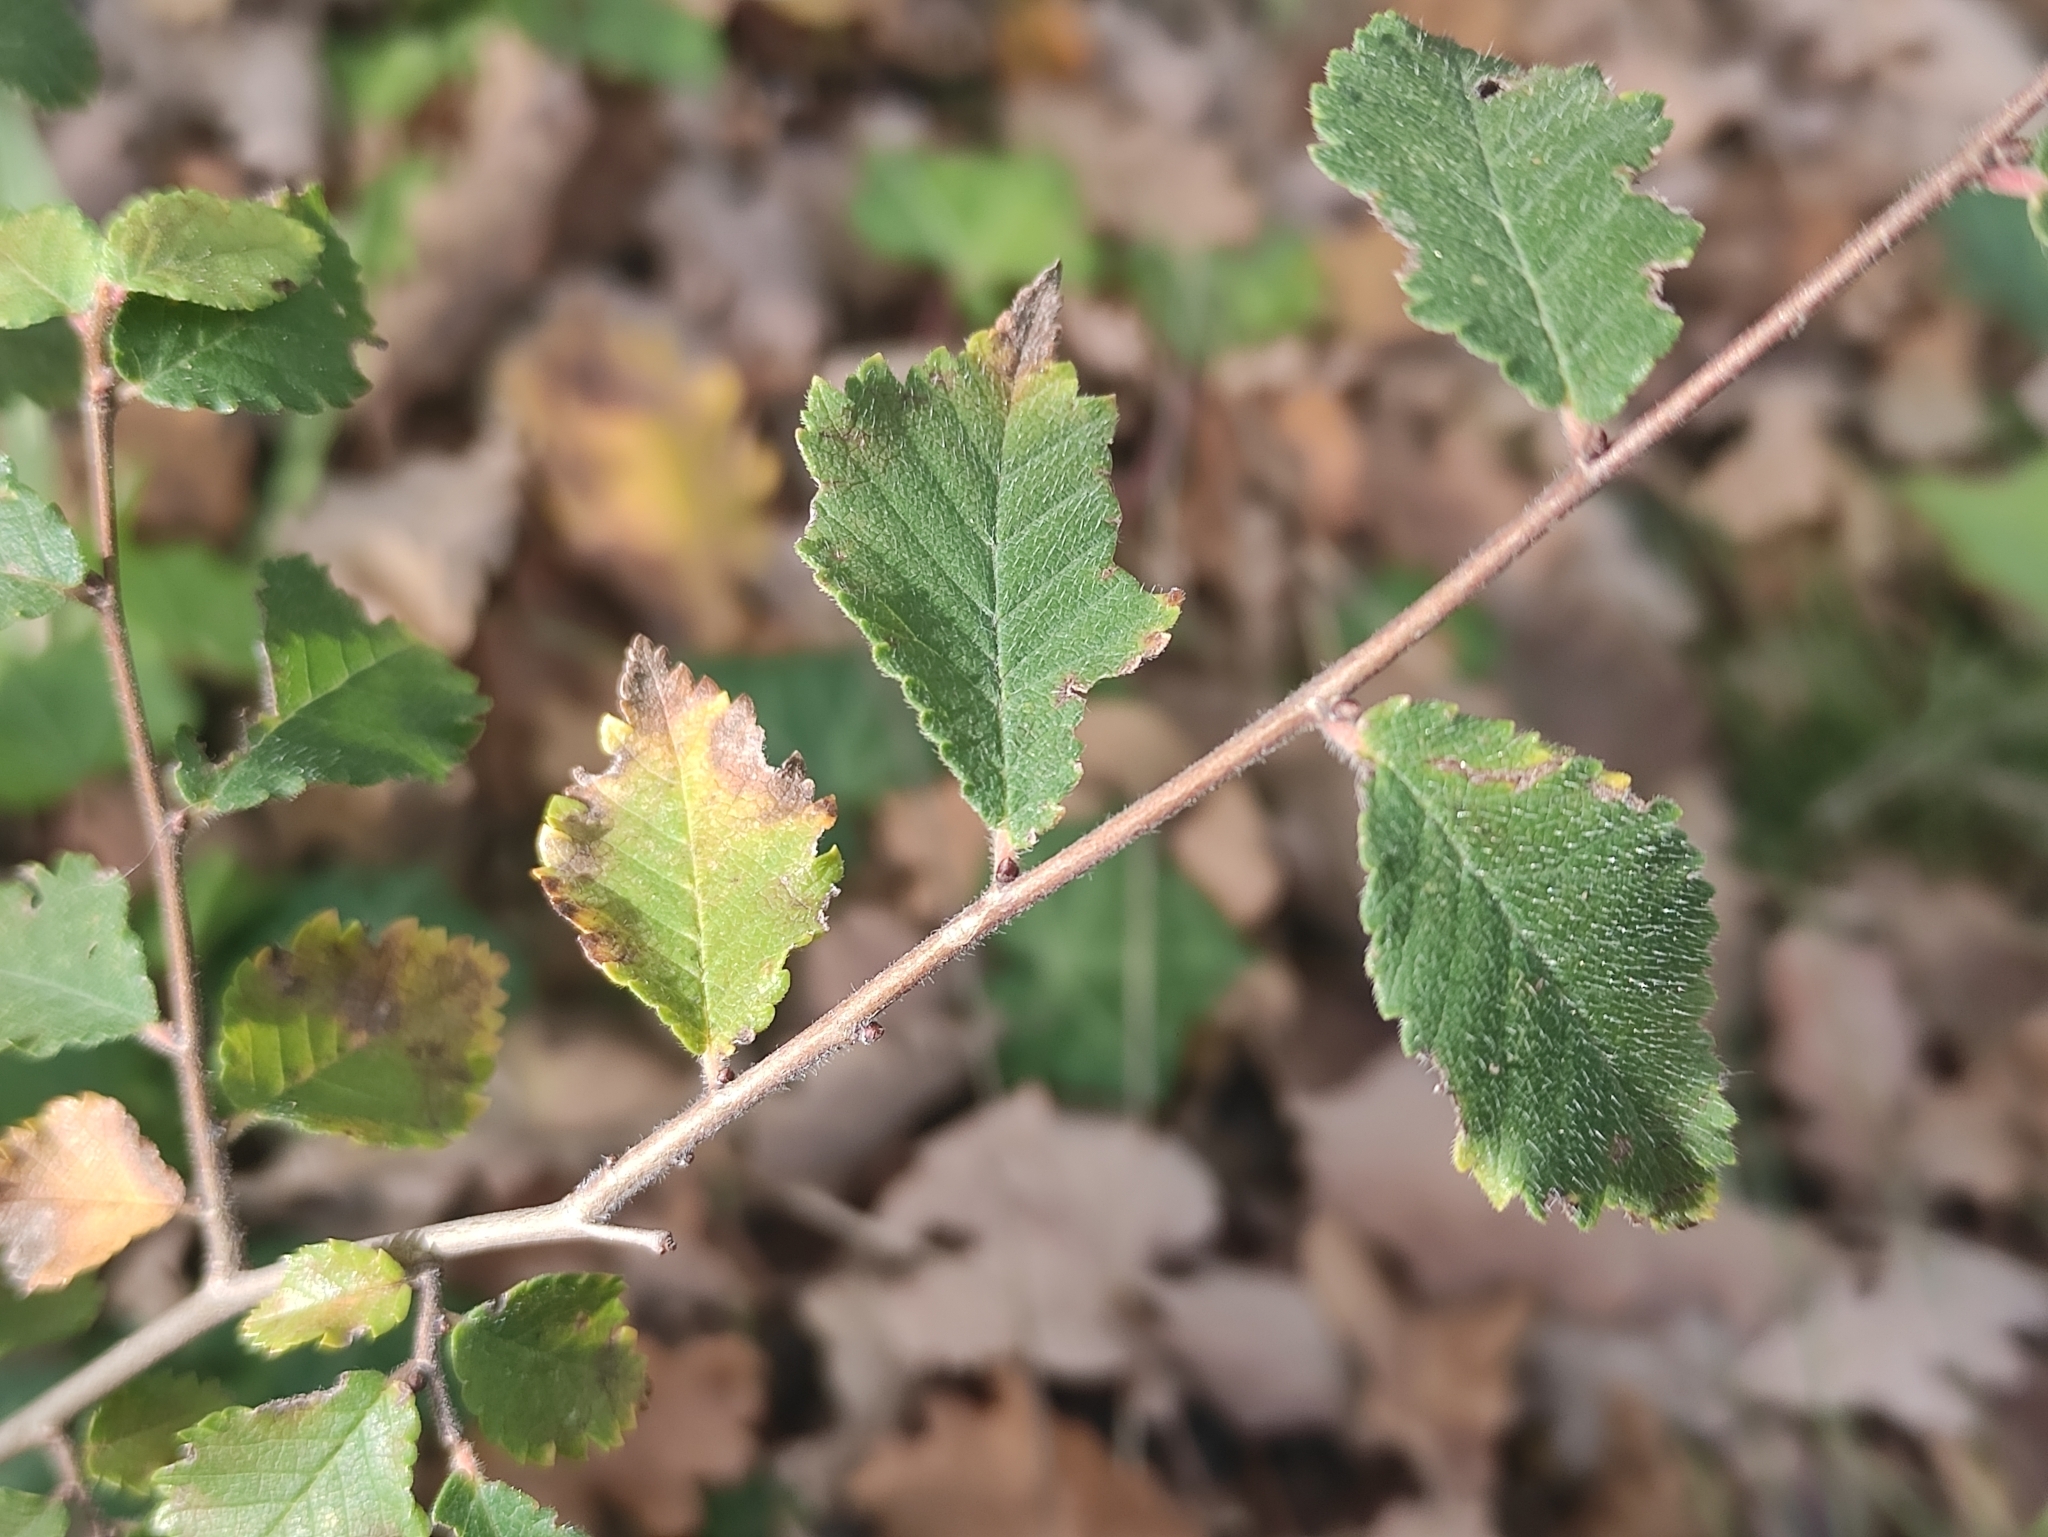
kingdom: Plantae
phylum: Tracheophyta
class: Magnoliopsida
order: Rosales
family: Ulmaceae
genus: Ulmus
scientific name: Ulmus minor
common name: Small-leaved elm
